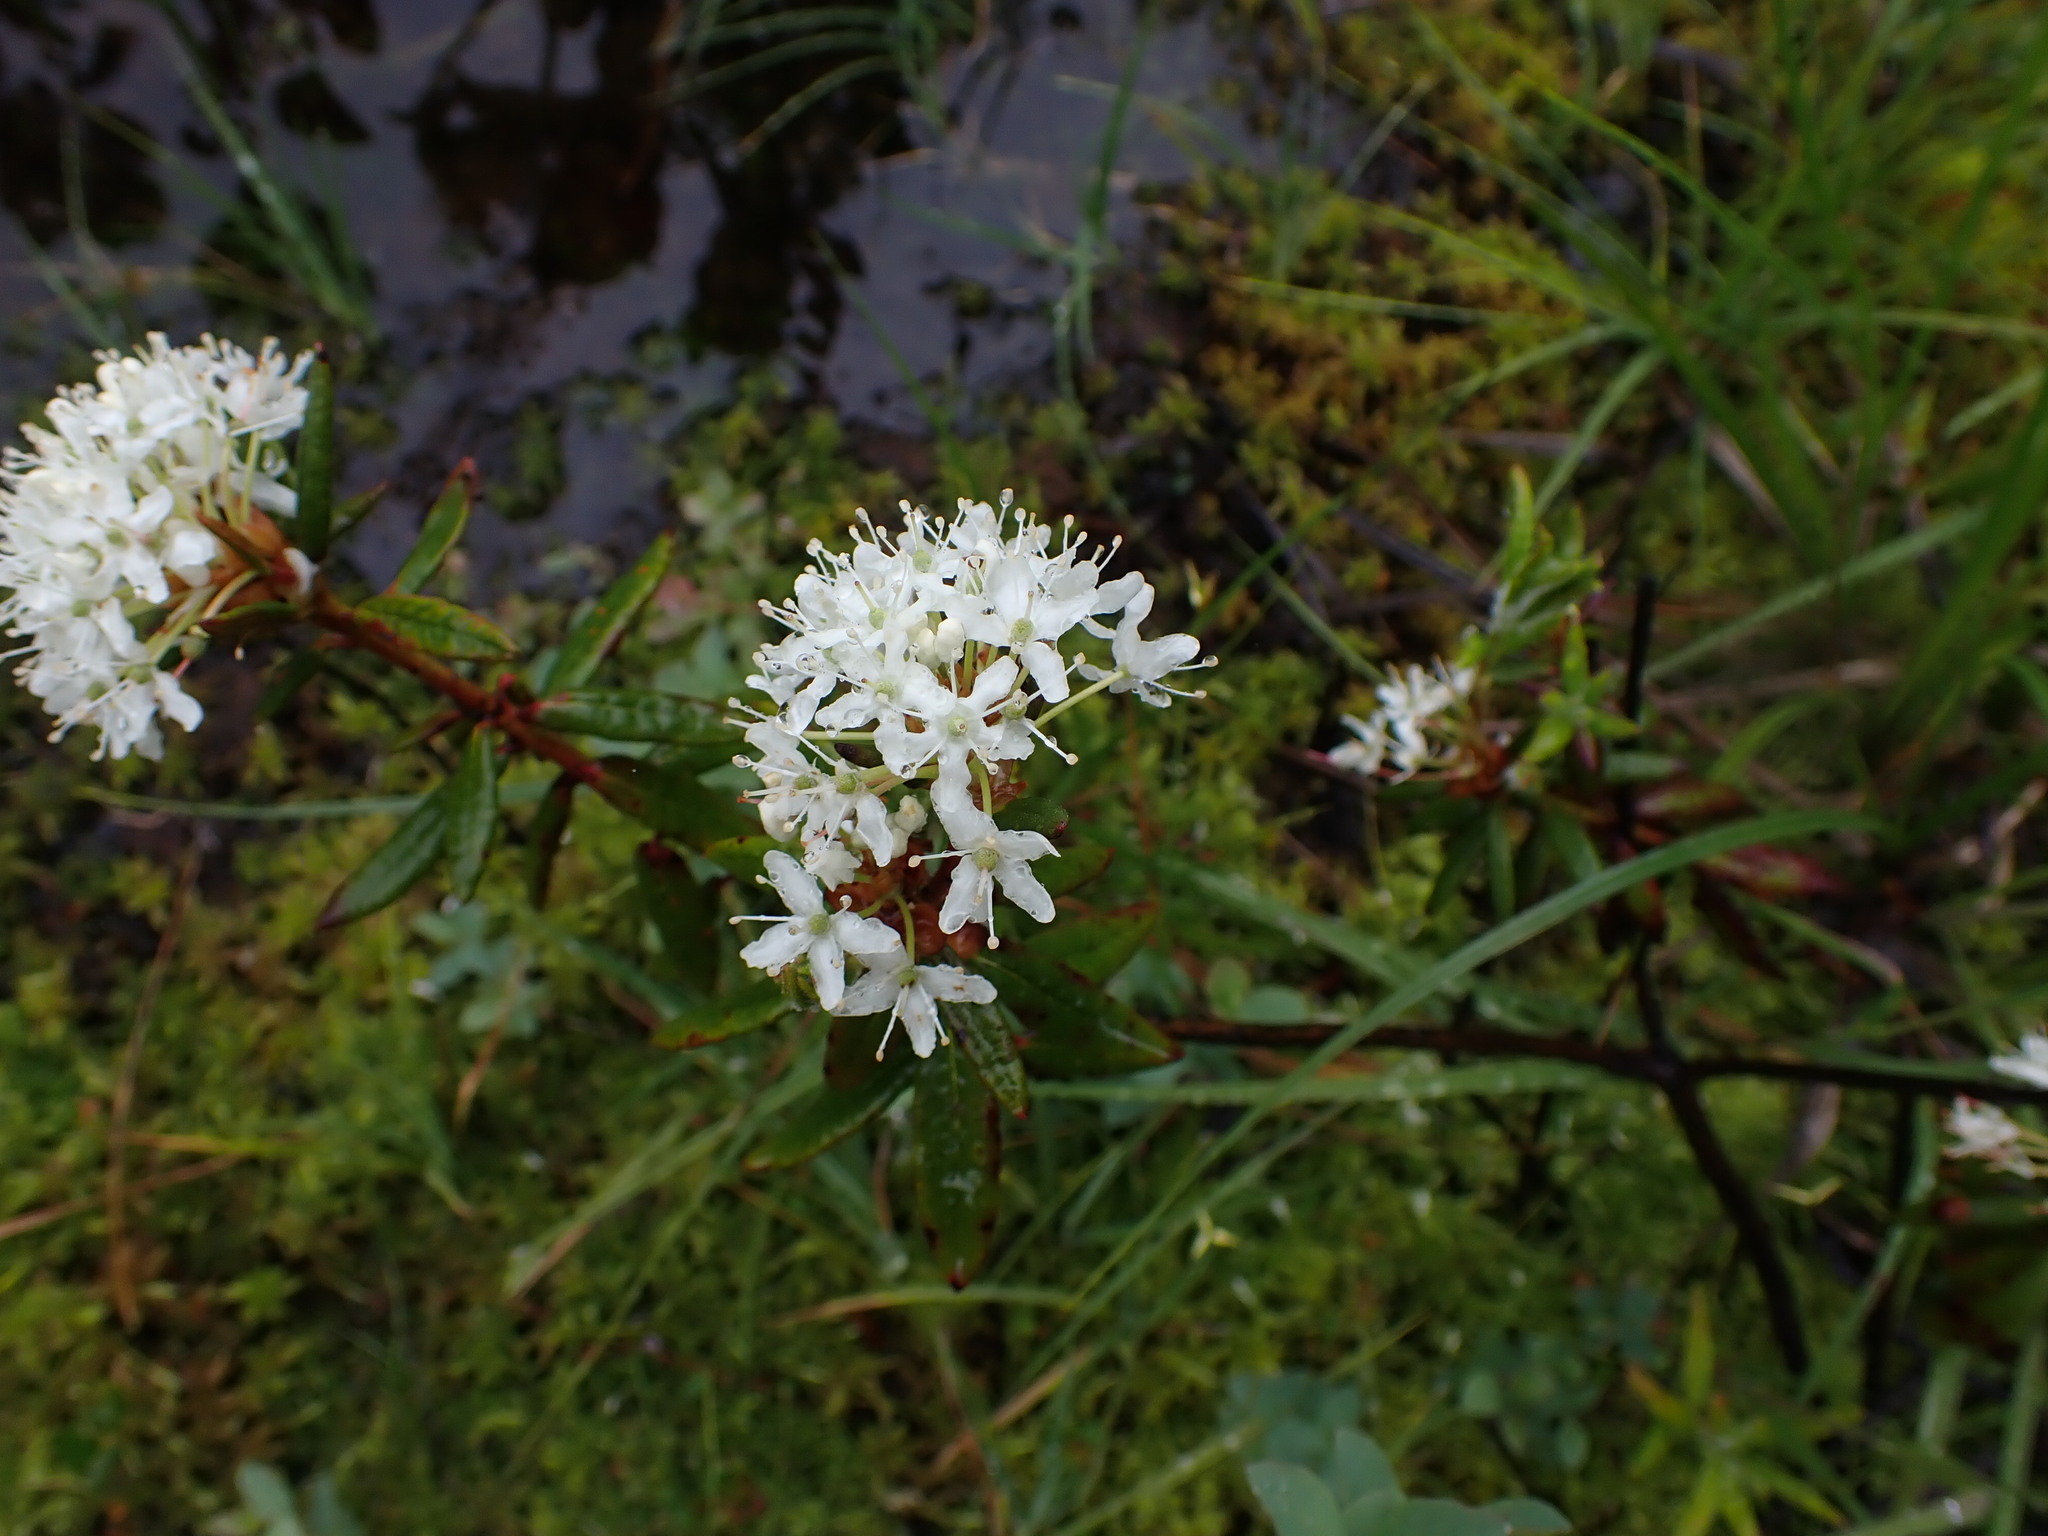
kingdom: Plantae
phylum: Tracheophyta
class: Magnoliopsida
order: Ericales
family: Ericaceae
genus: Rhododendron
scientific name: Rhododendron groenlandicum
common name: Bog labrador tea
